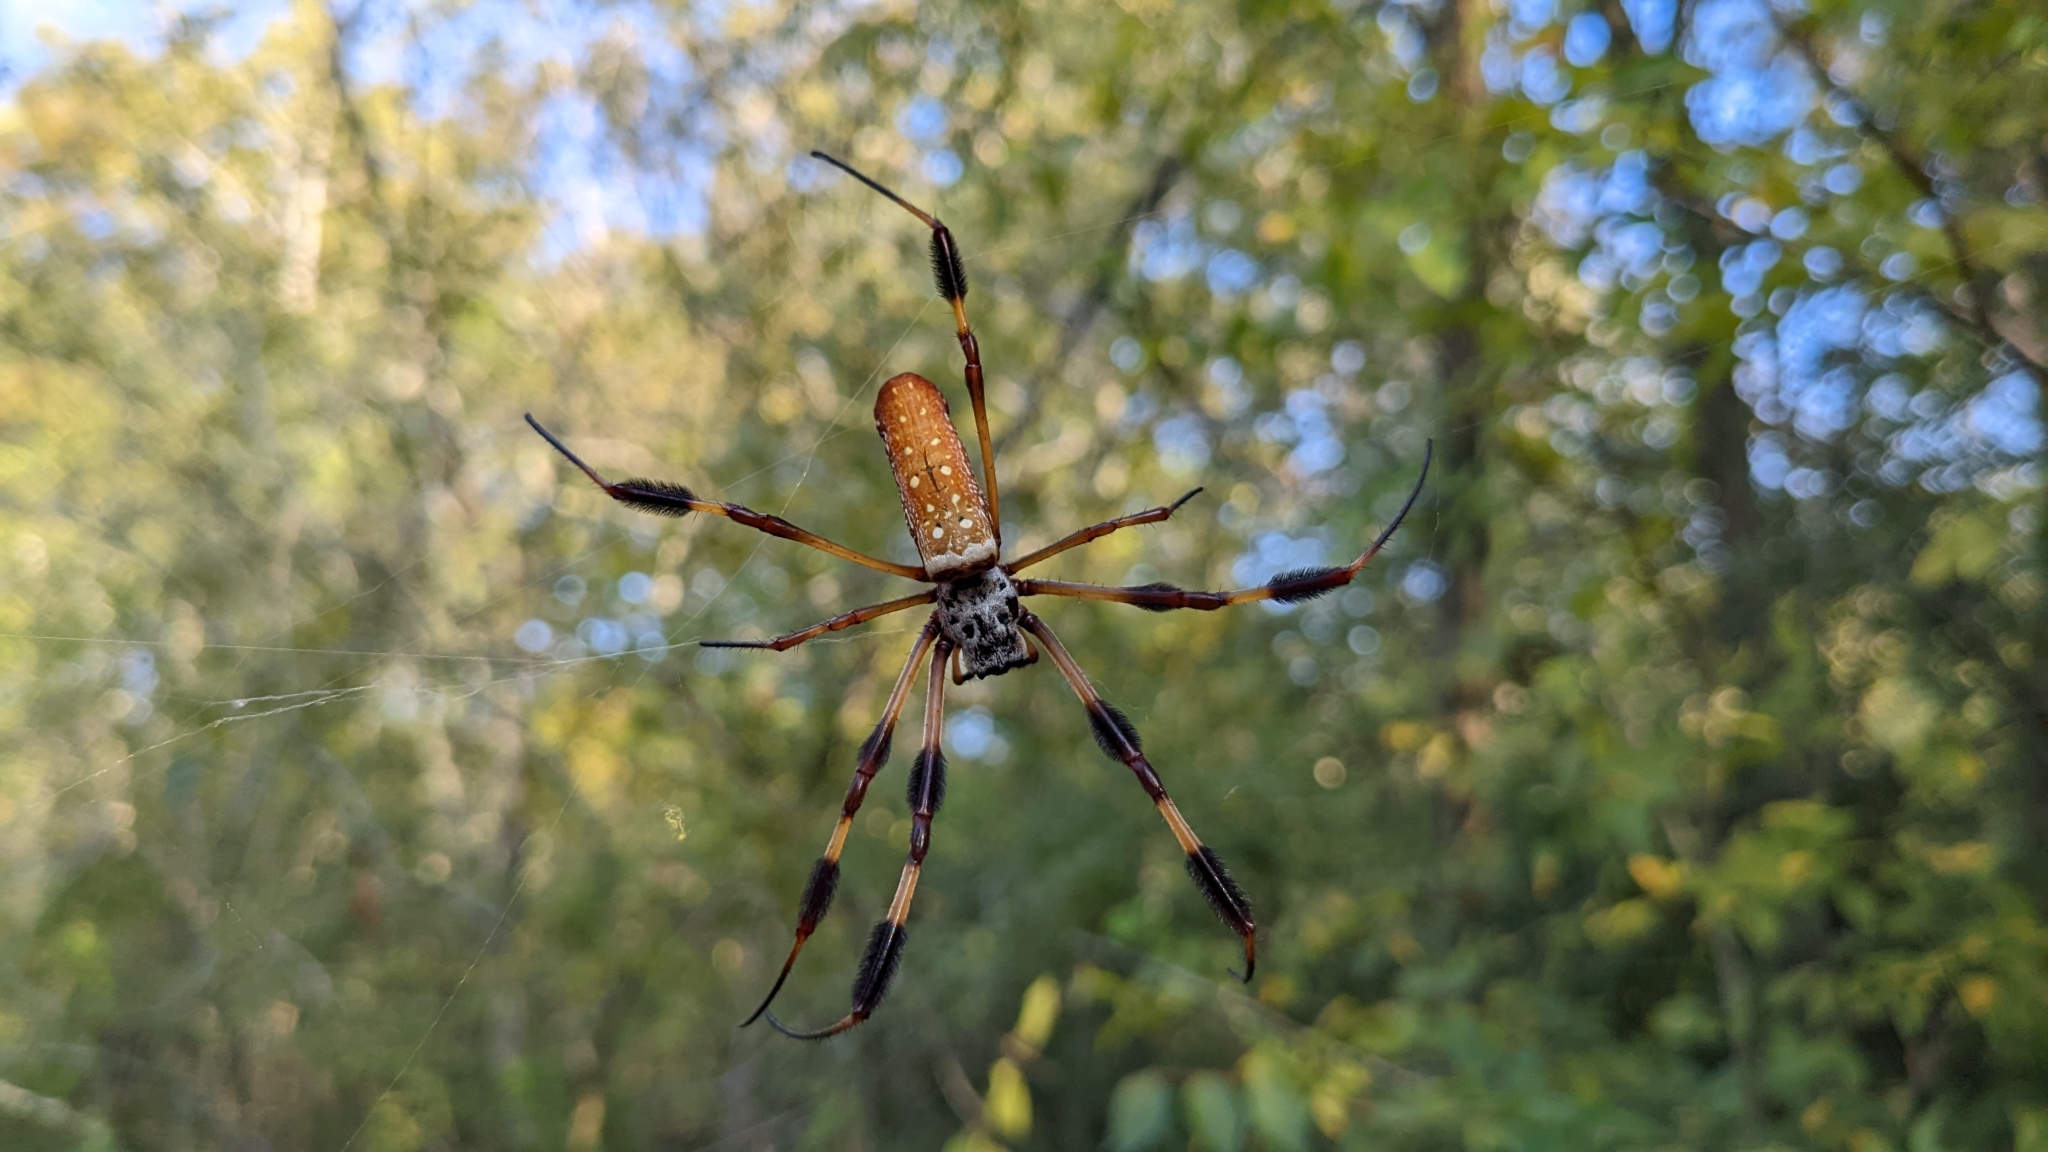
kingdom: Animalia
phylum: Arthropoda
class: Arachnida
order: Araneae
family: Araneidae
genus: Trichonephila
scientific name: Trichonephila clavipes
